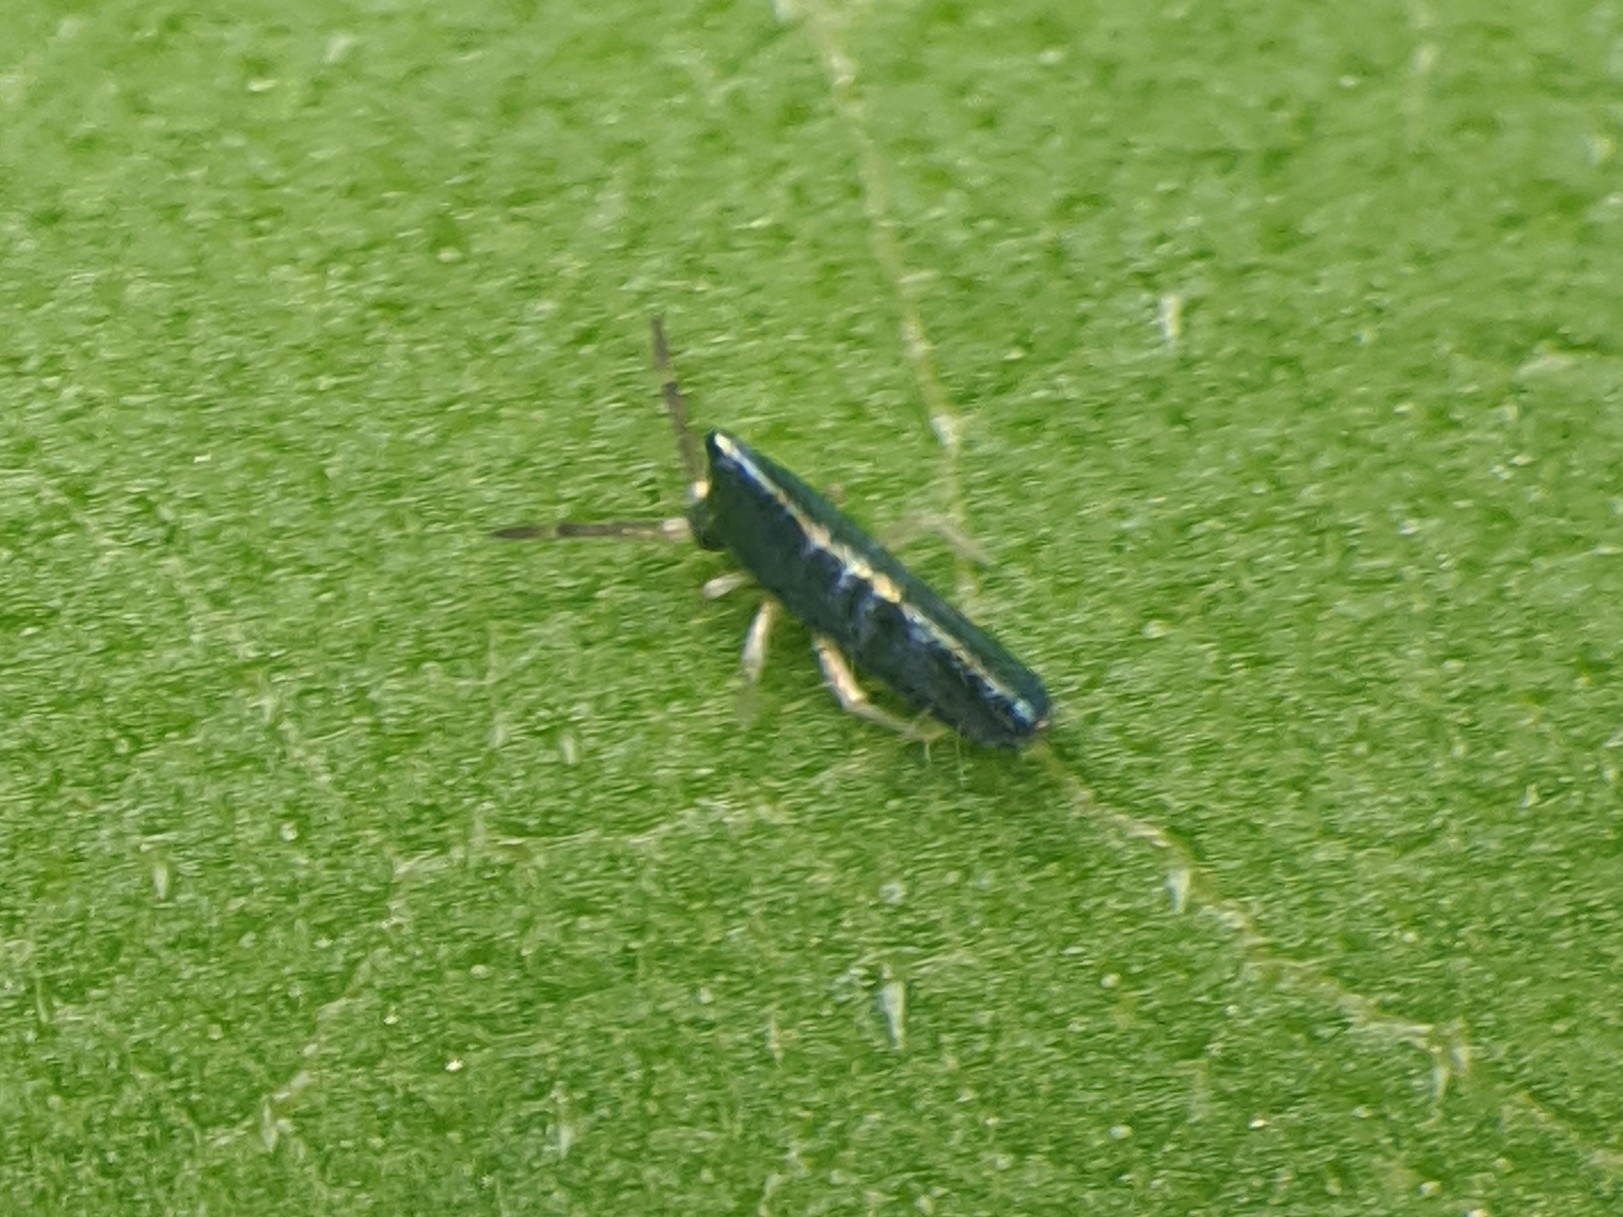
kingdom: Animalia
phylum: Arthropoda
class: Collembola
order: Entomobryomorpha
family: Entomobryidae
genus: Lepidocyrtus
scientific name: Lepidocyrtus paradoxus
